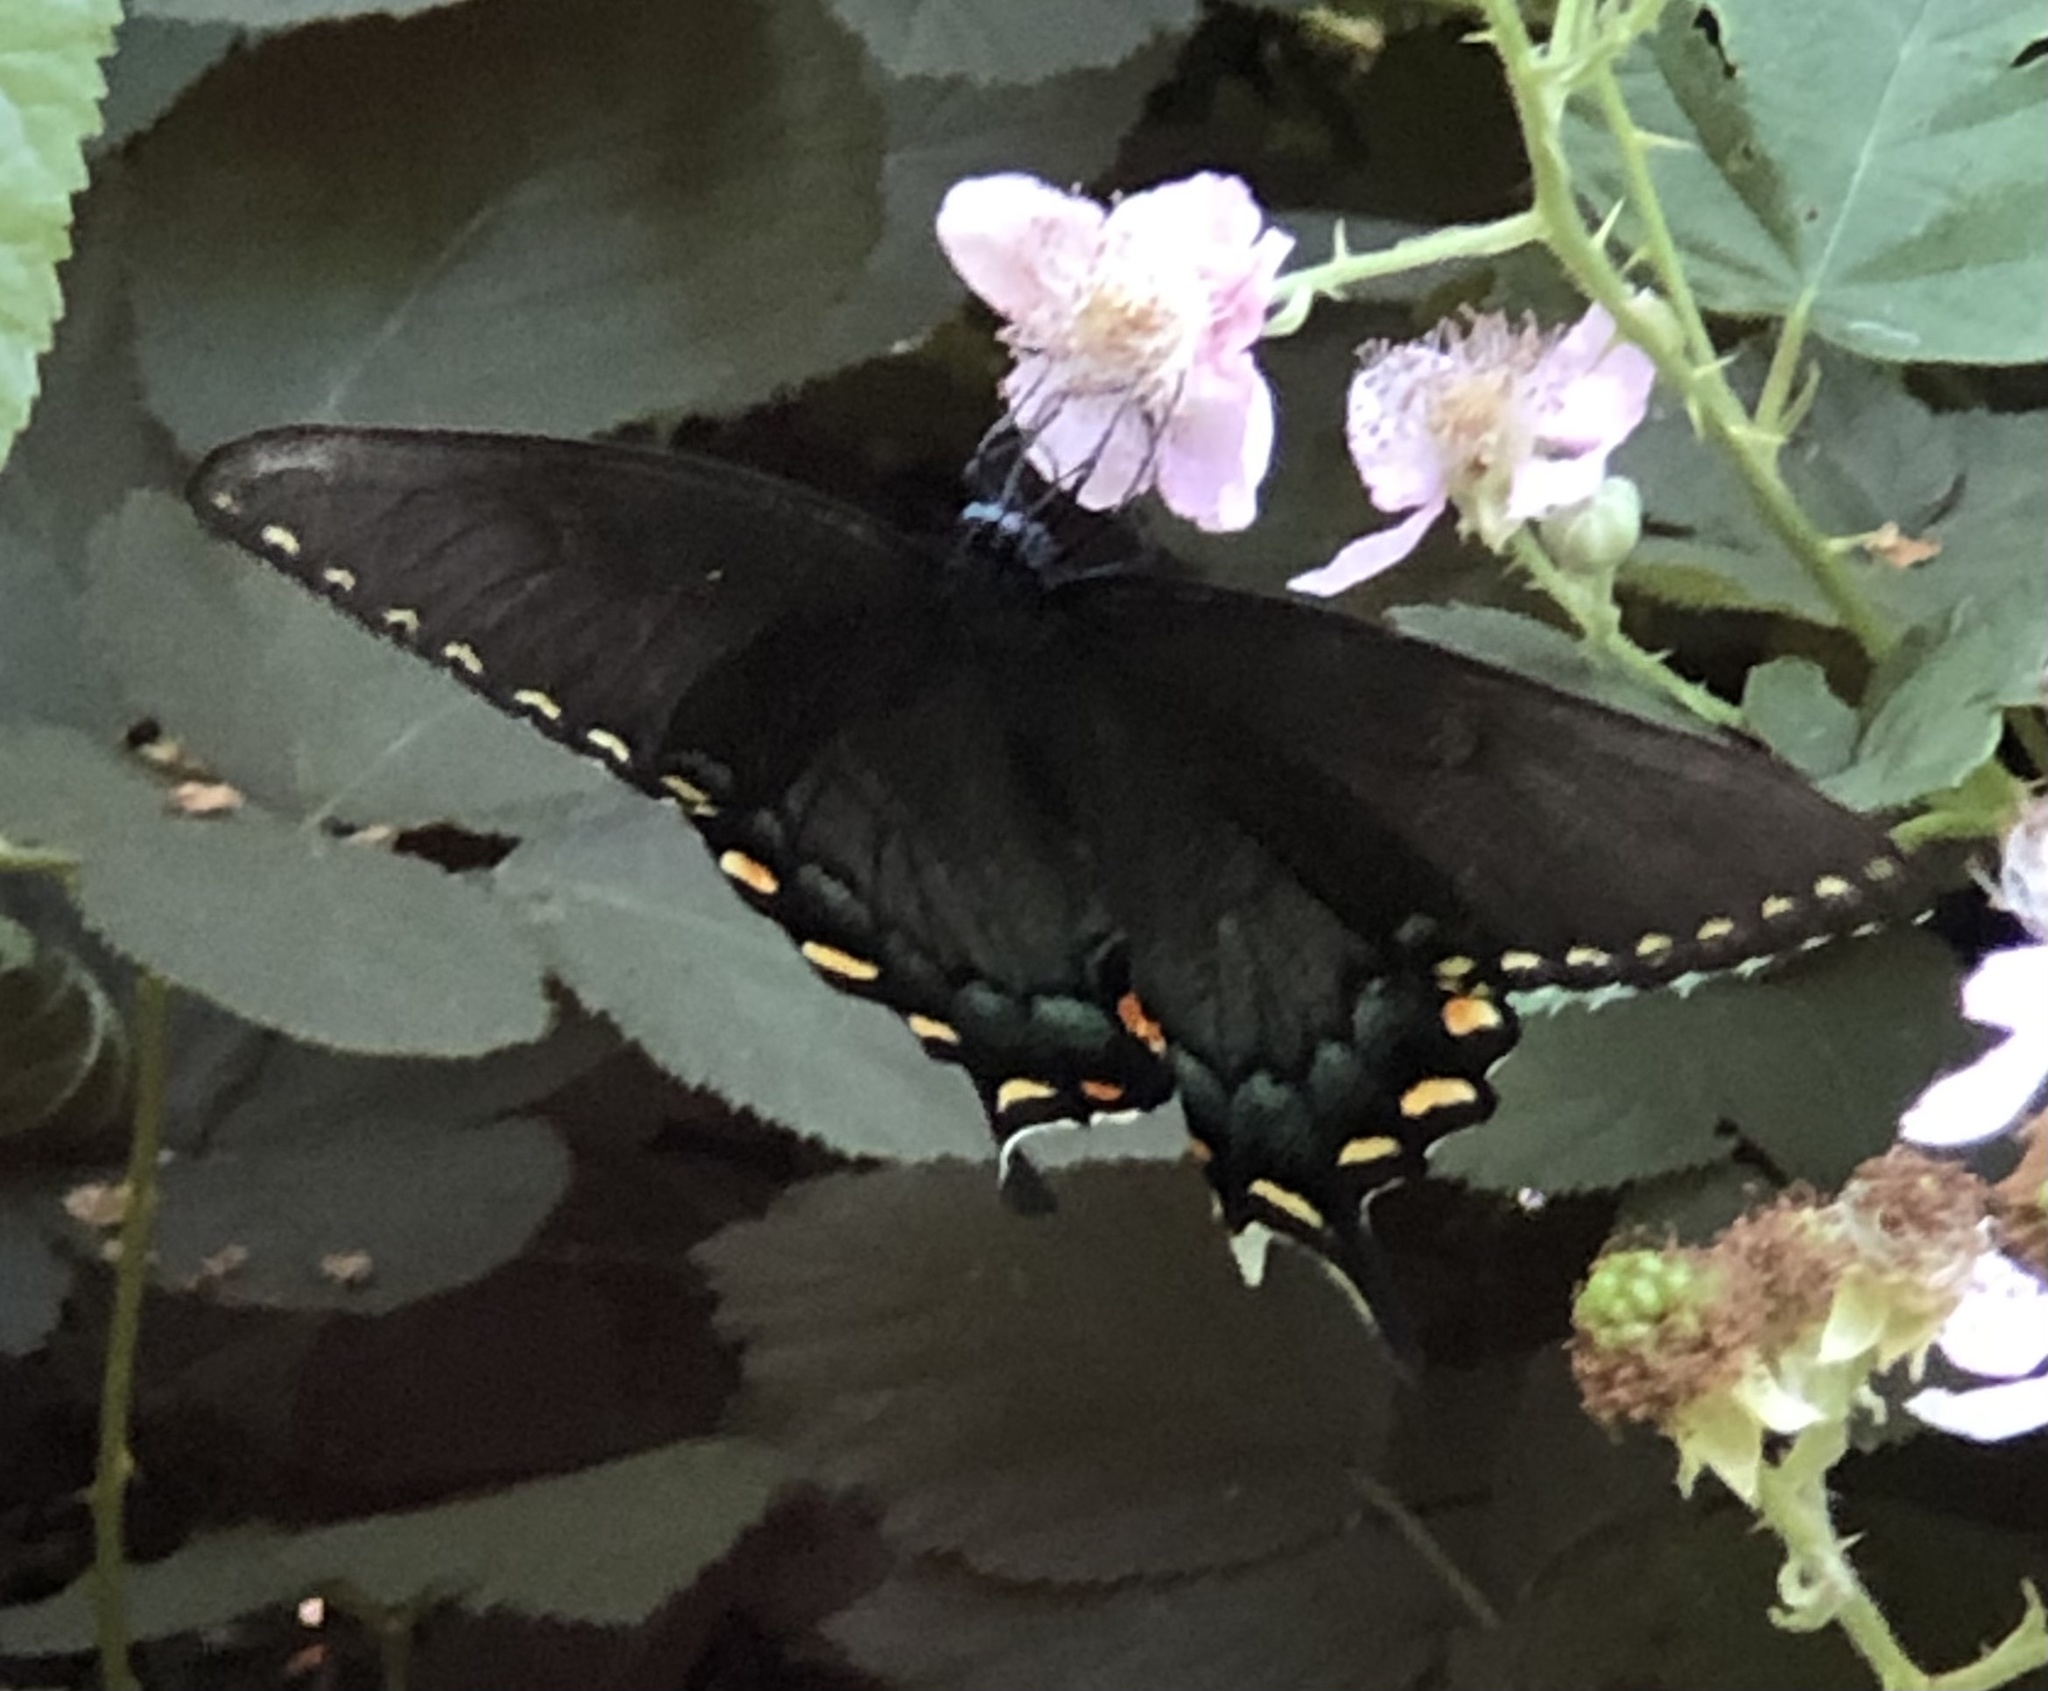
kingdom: Animalia
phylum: Arthropoda
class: Insecta
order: Lepidoptera
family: Papilionidae
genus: Papilio
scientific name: Papilio glaucus
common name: Tiger swallowtail
